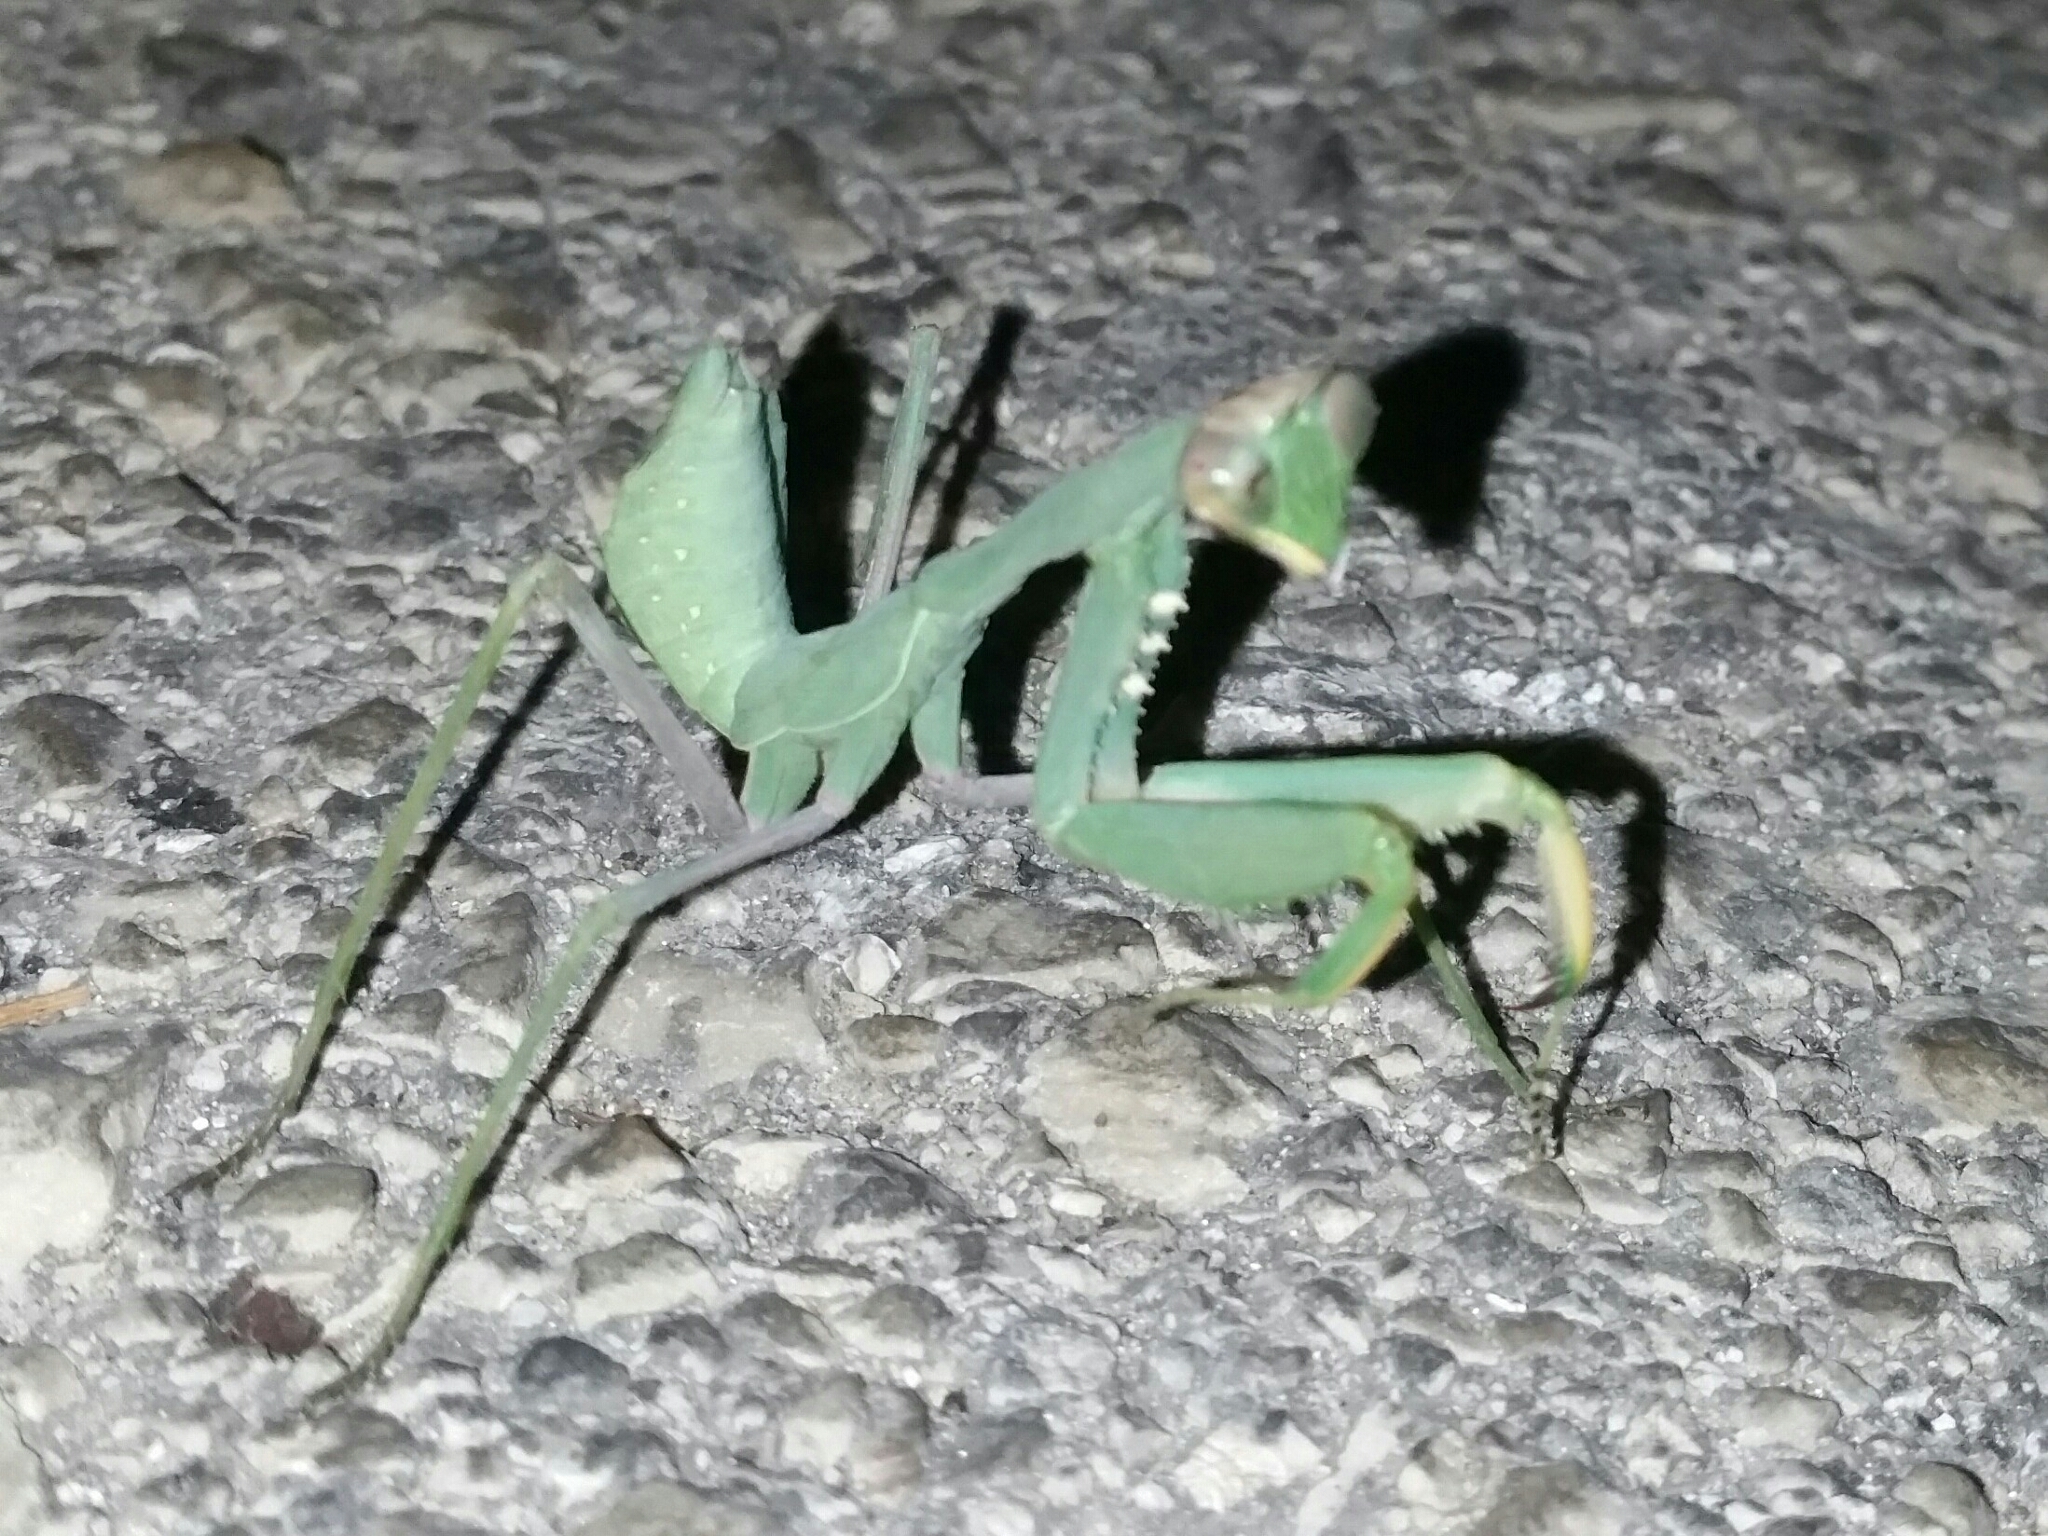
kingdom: Animalia
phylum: Arthropoda
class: Insecta
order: Mantodea
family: Mantidae
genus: Sphodromantis
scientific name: Sphodromantis viridis
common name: Giant african mantis
